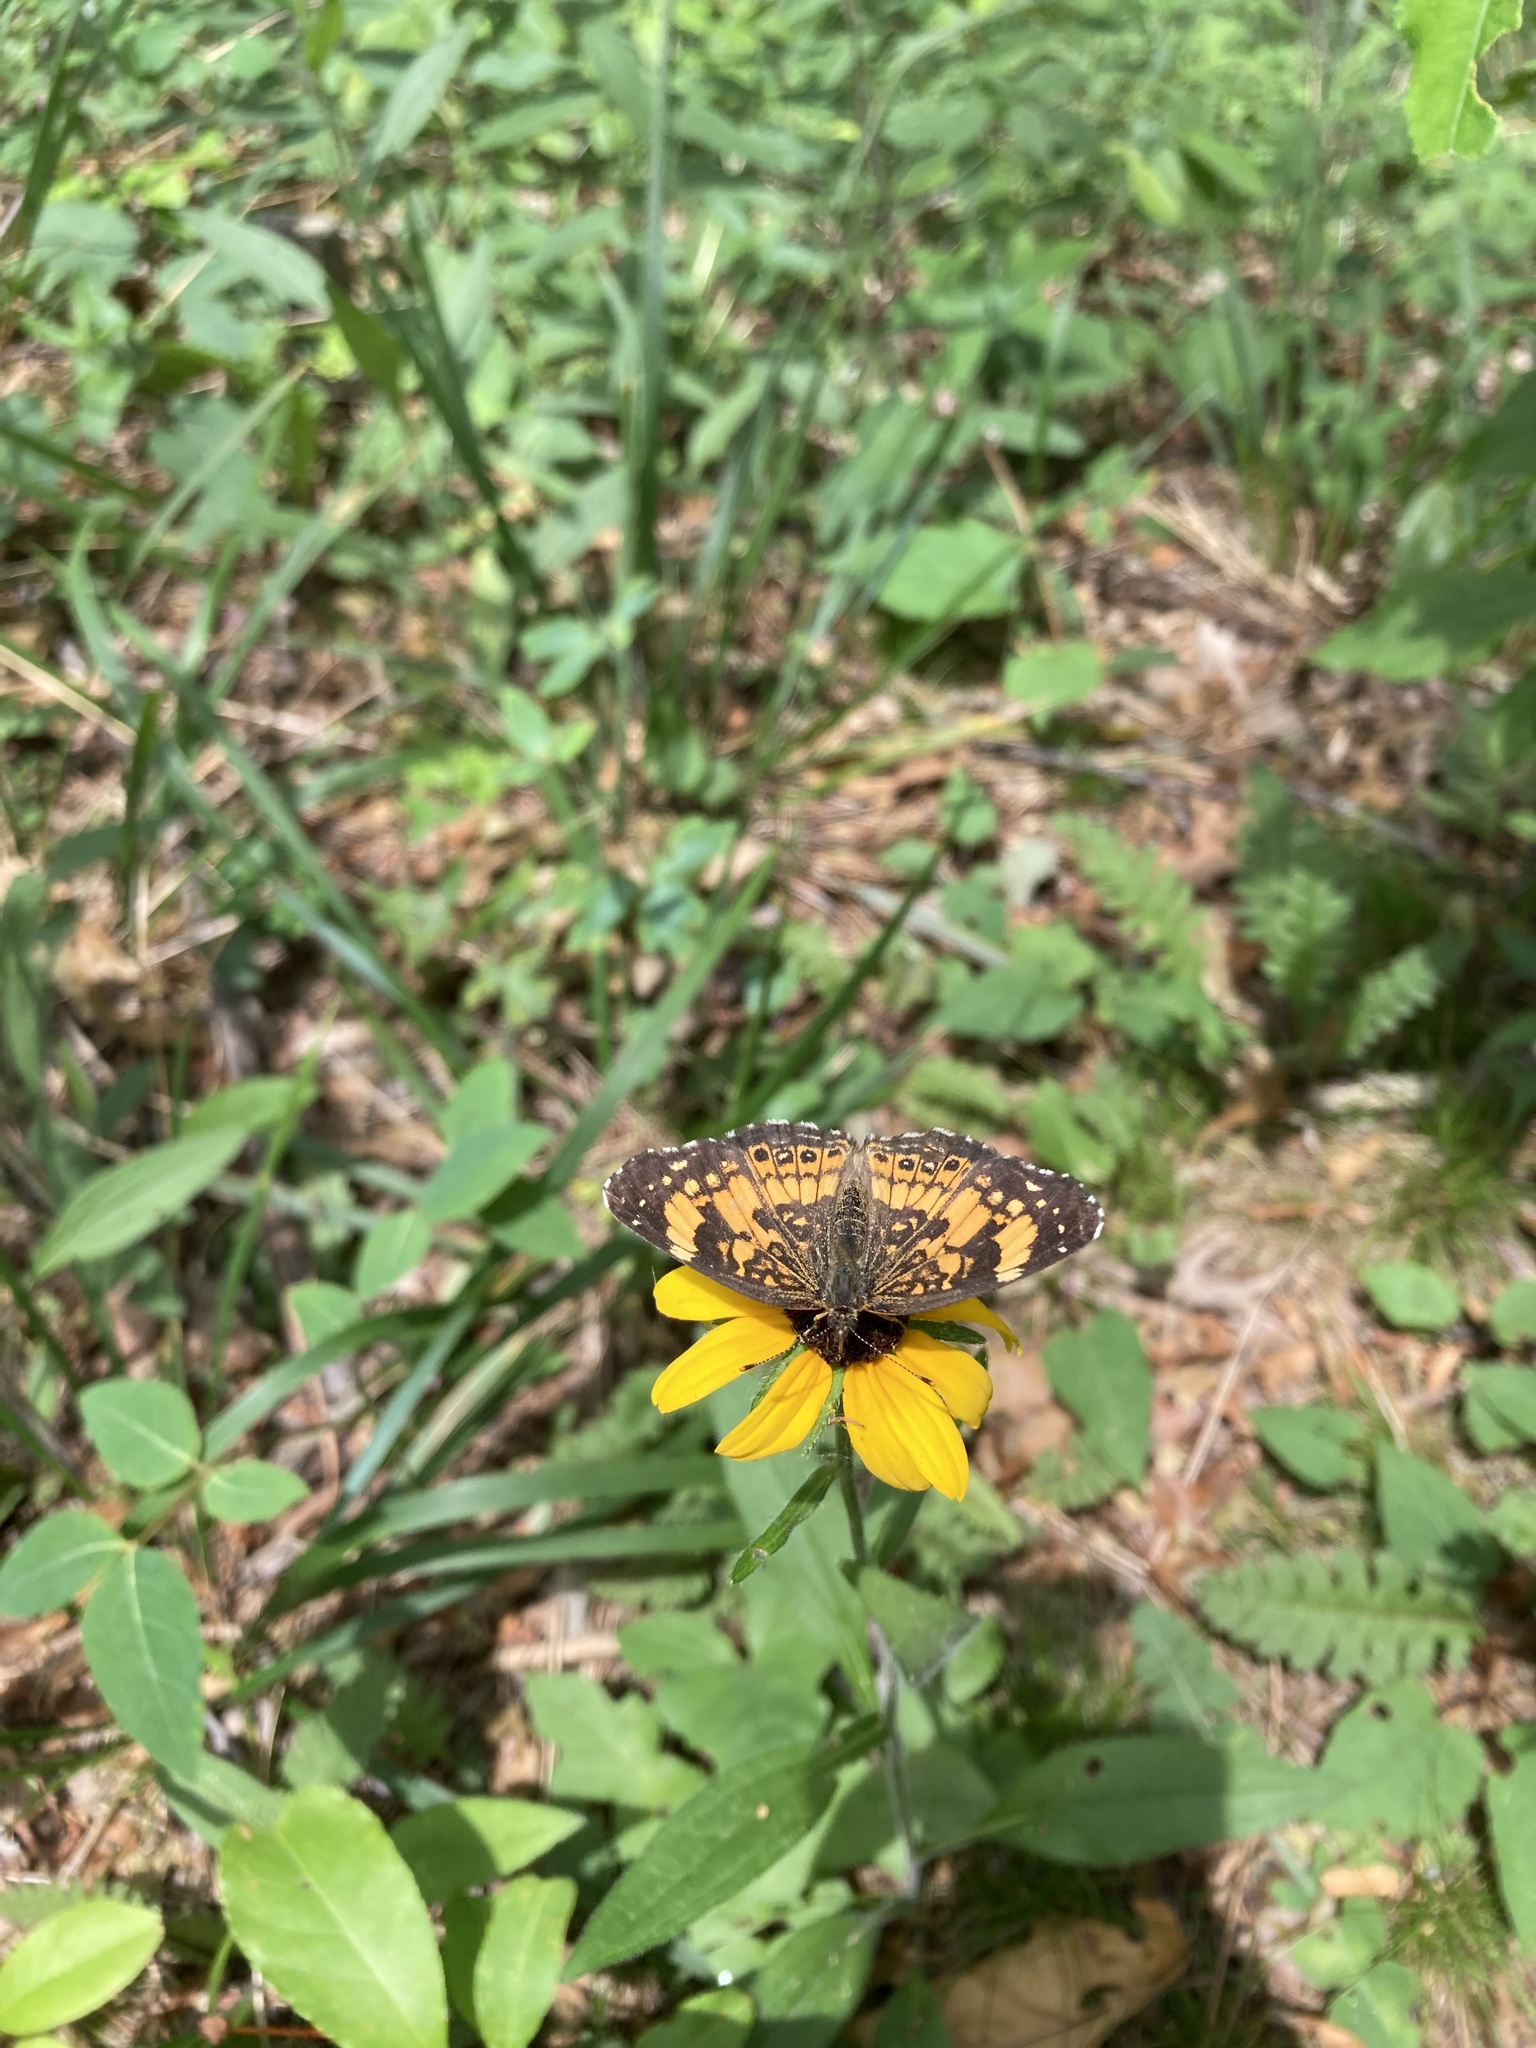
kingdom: Animalia
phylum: Arthropoda
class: Insecta
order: Lepidoptera
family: Nymphalidae
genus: Chlosyne
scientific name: Chlosyne nycteis
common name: Silvery checkerspot
